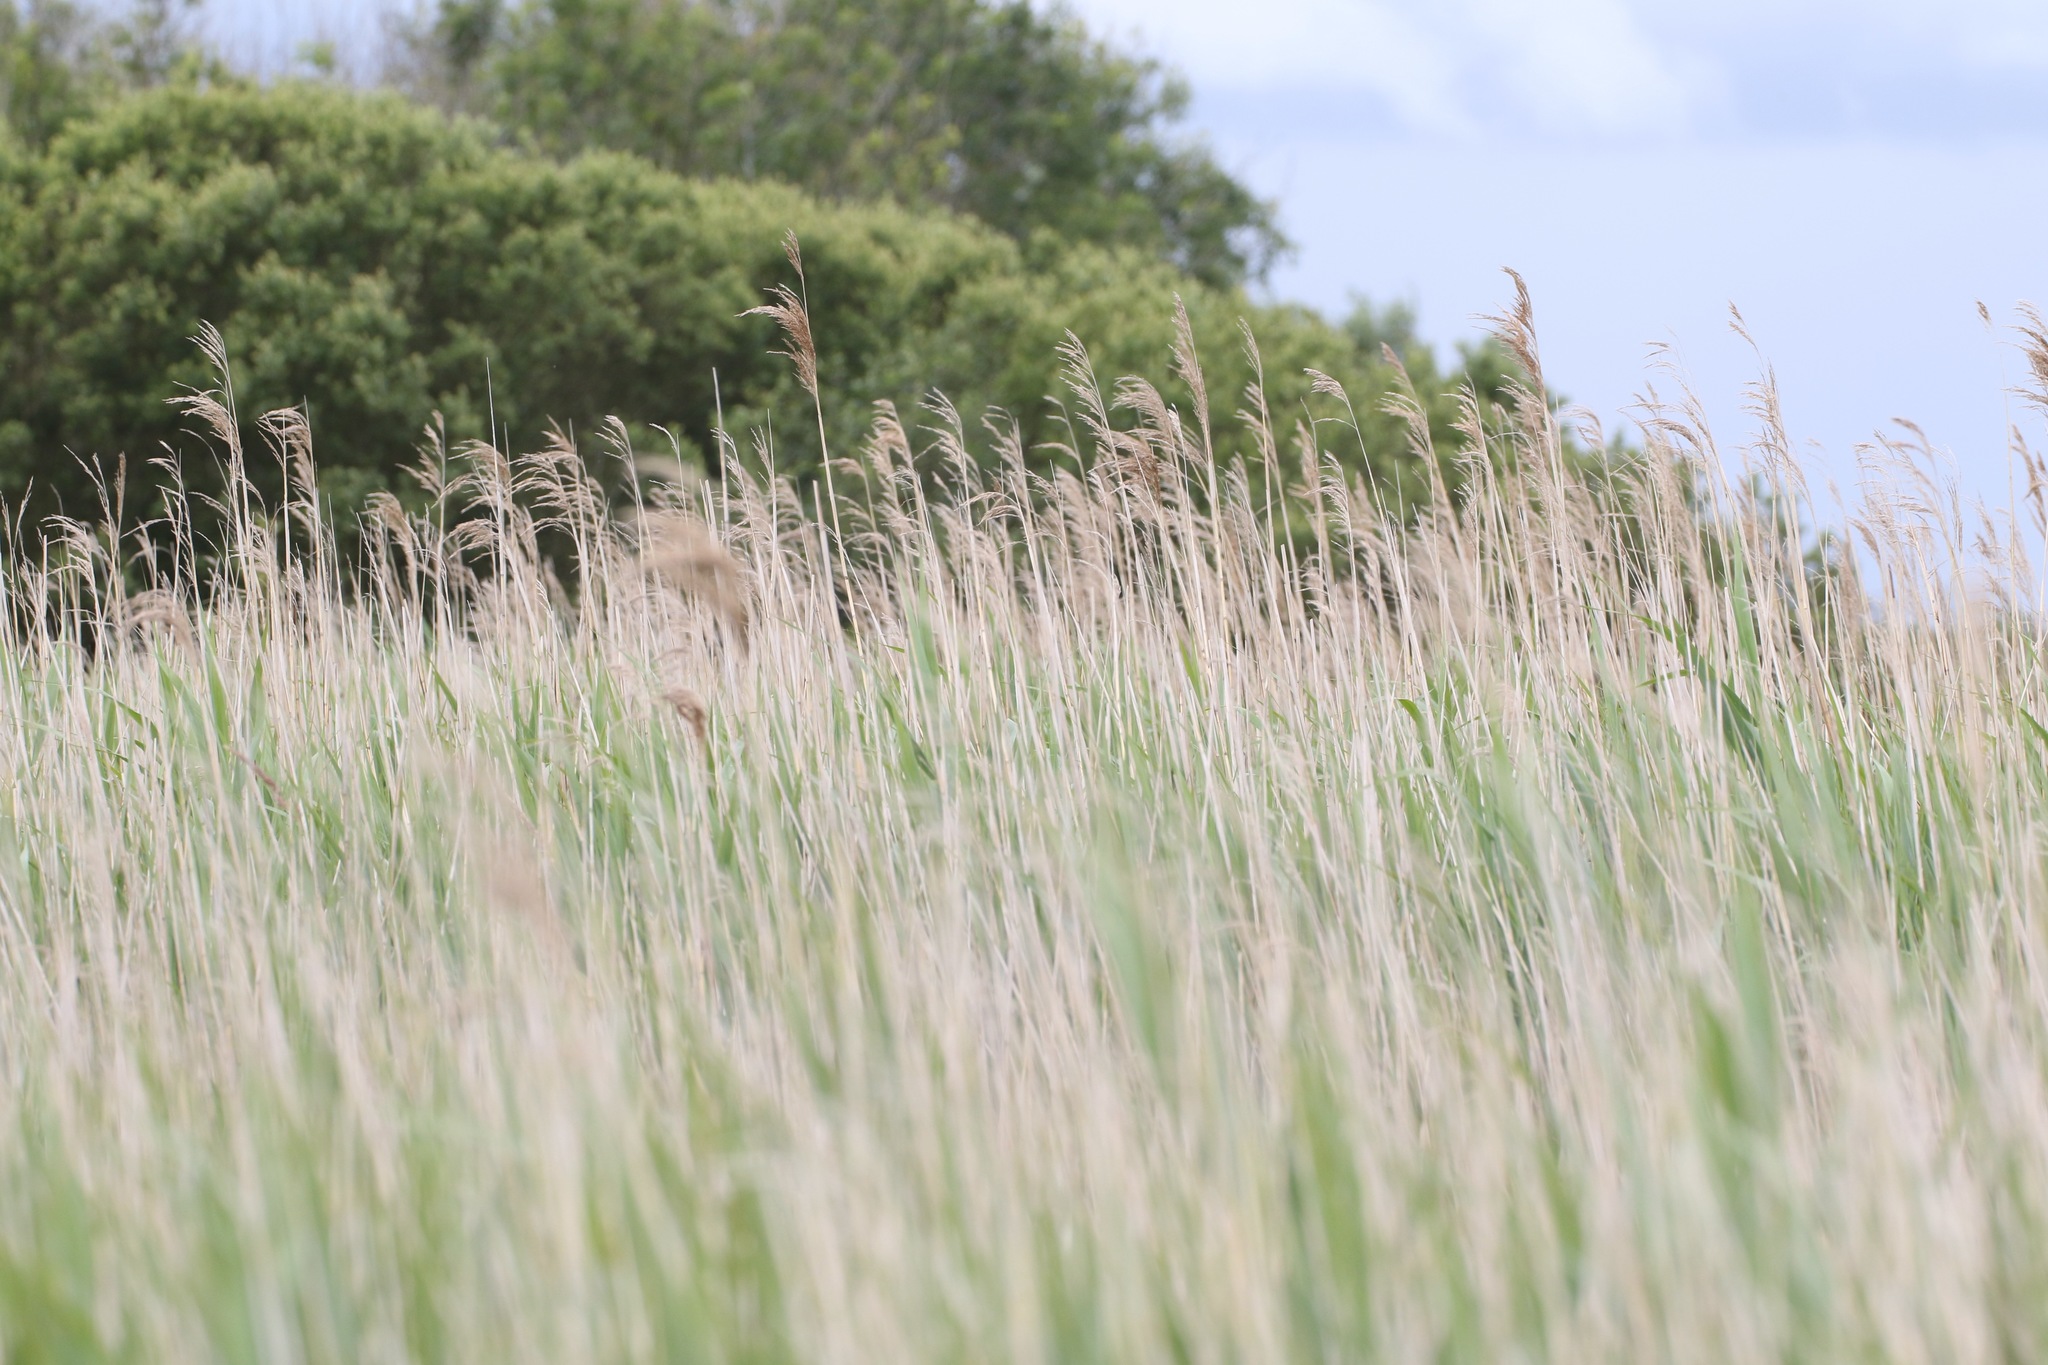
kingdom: Plantae
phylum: Tracheophyta
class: Liliopsida
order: Poales
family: Poaceae
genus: Phragmites
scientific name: Phragmites australis
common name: Common reed
